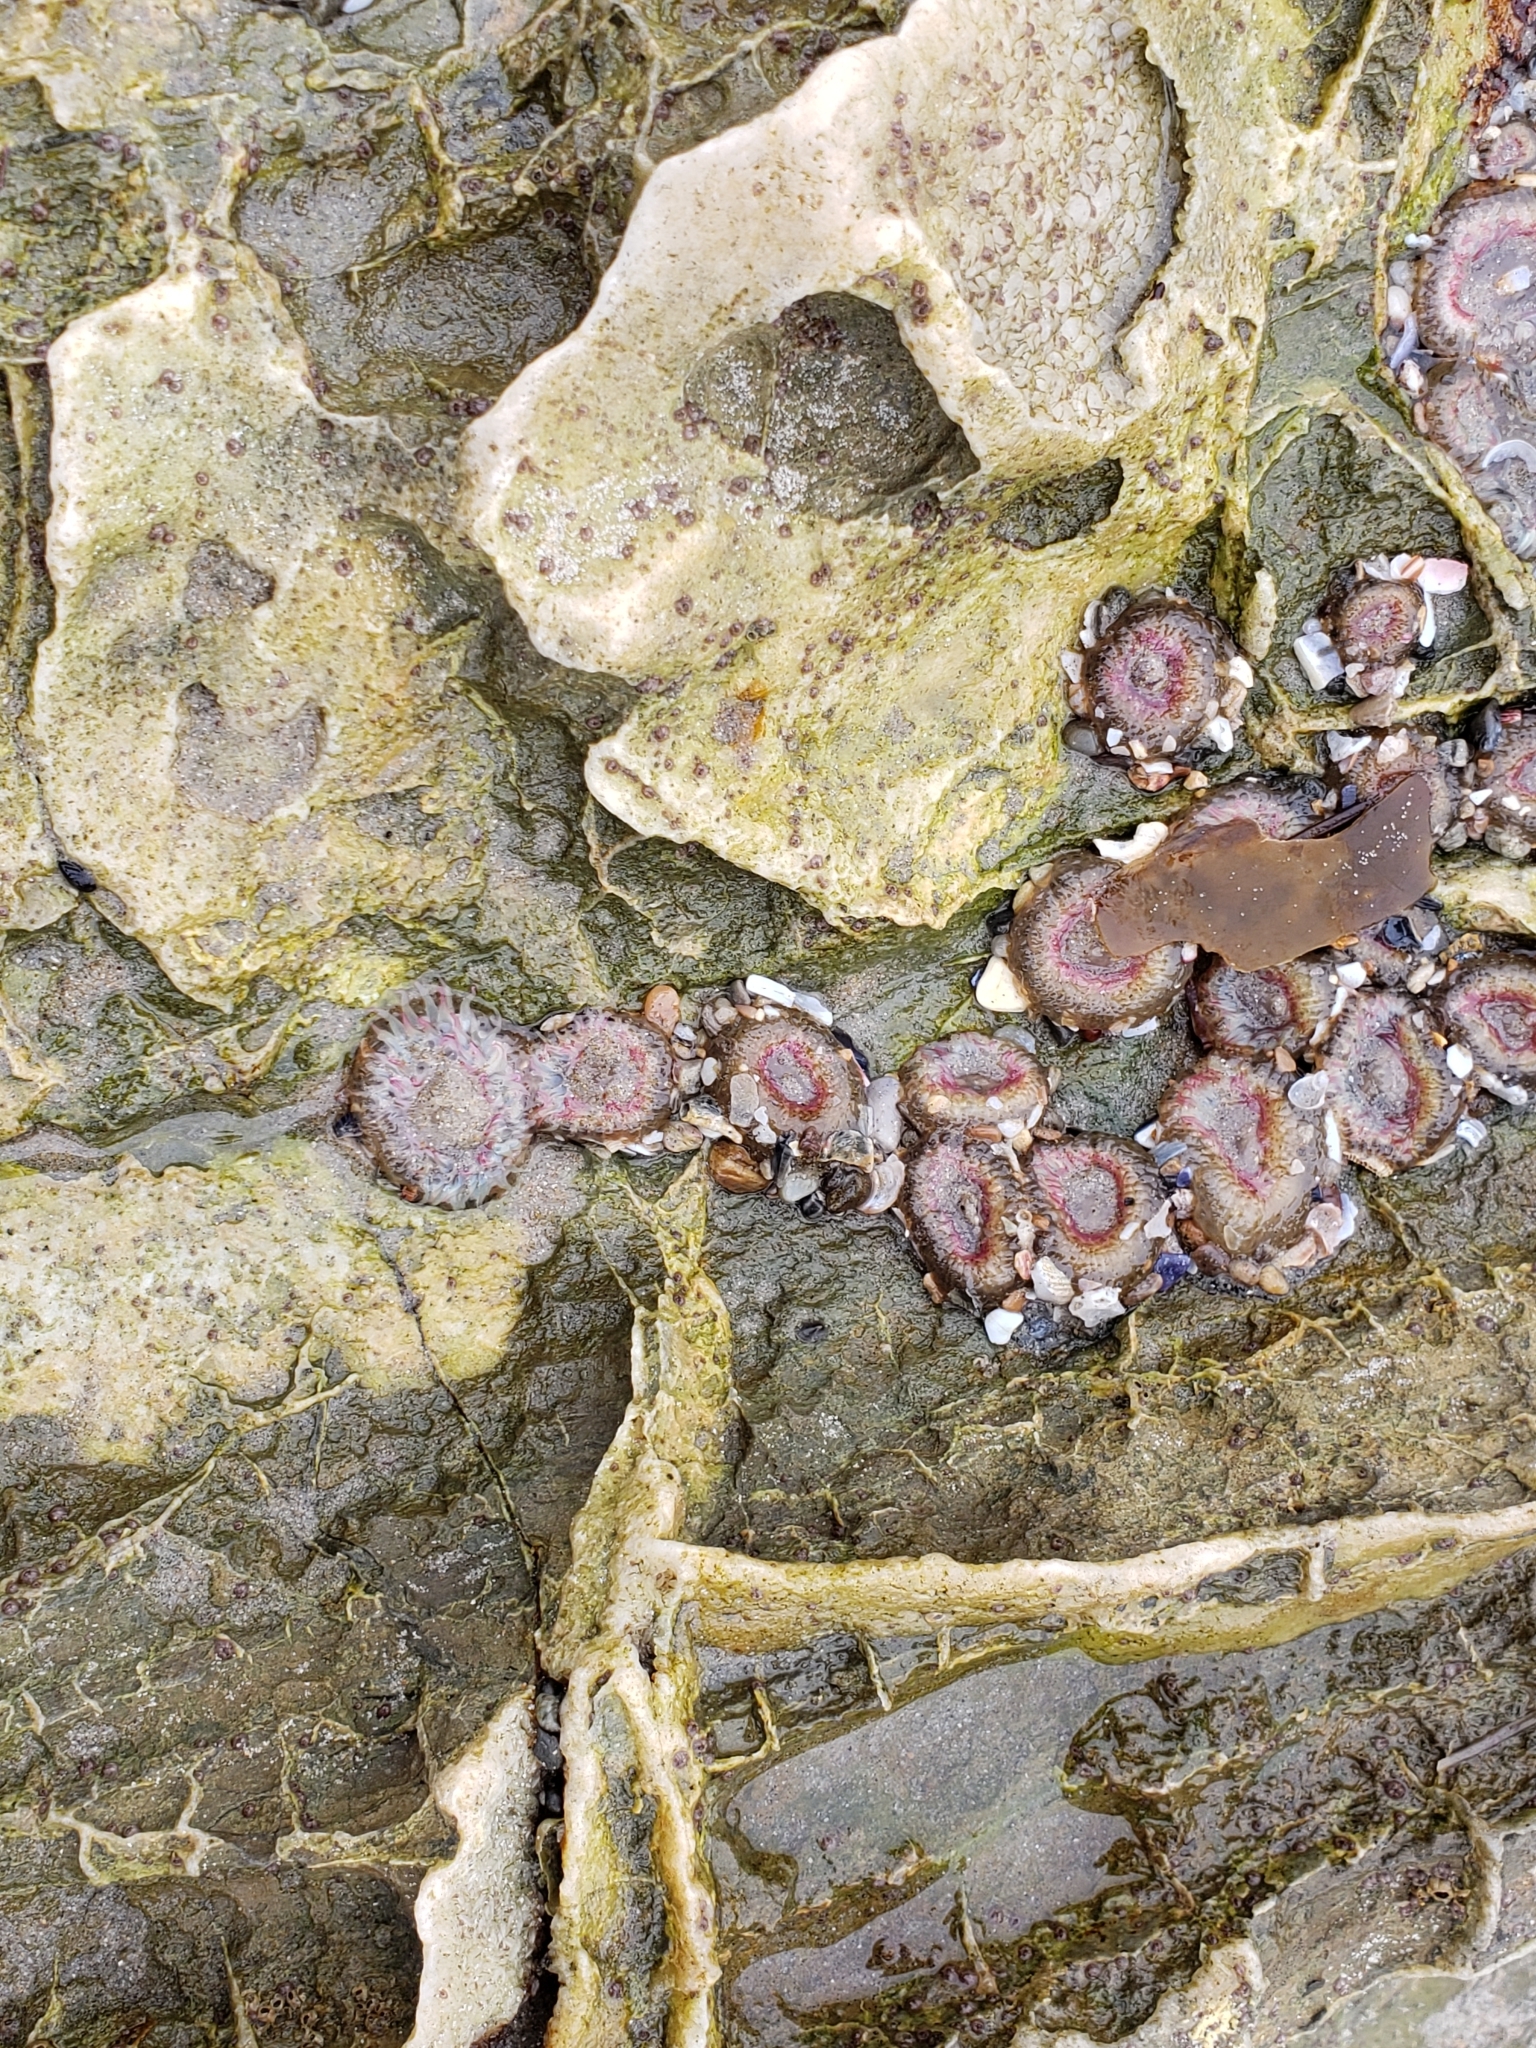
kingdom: Animalia
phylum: Cnidaria
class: Anthozoa
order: Actiniaria
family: Actiniidae
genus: Anthopleura
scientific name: Anthopleura elegantissima
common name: Clonal anemone
